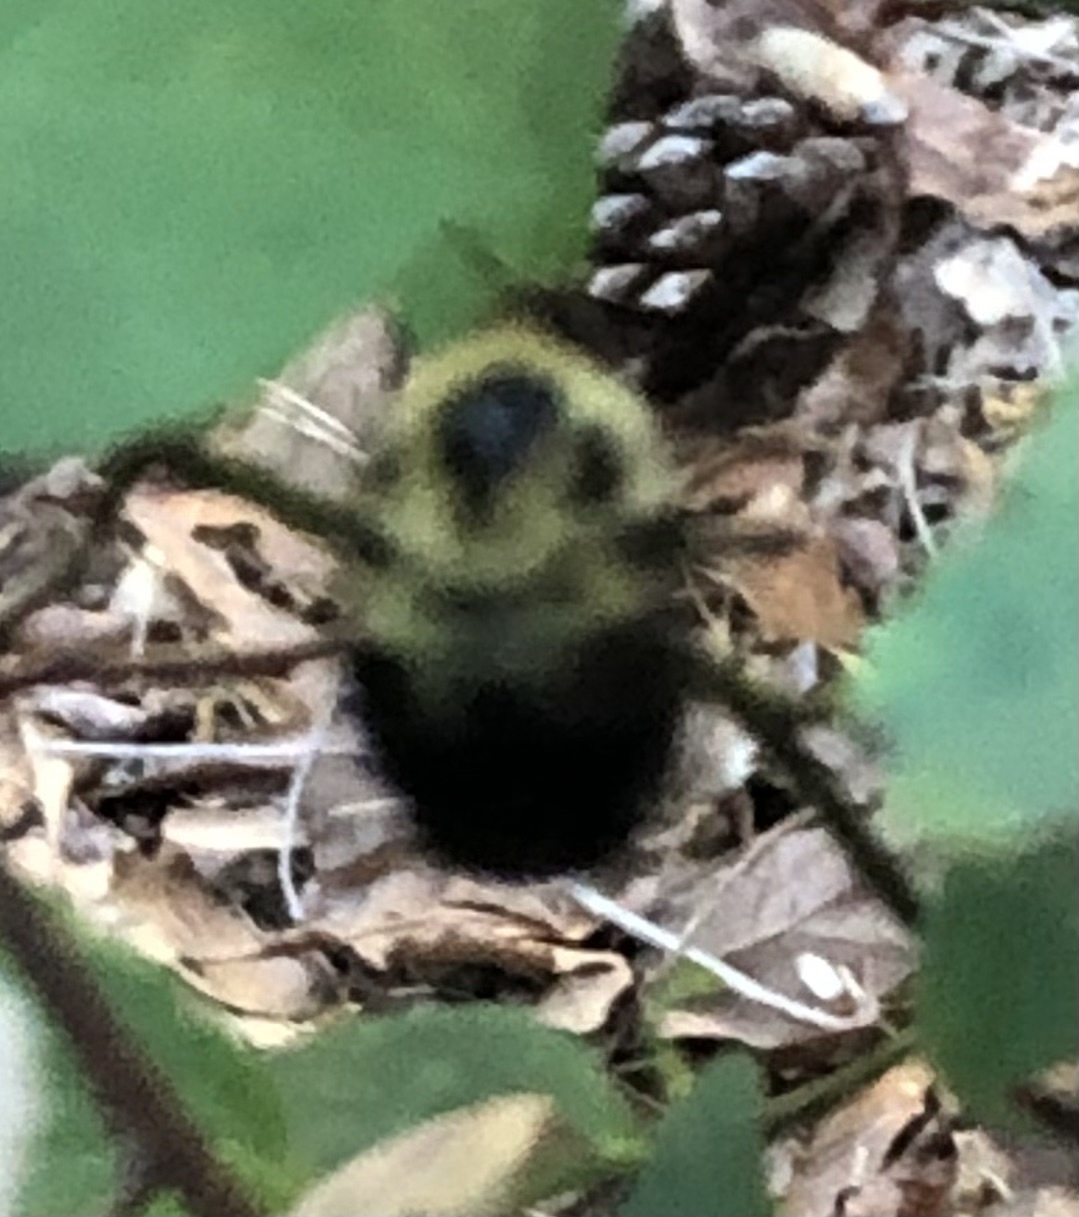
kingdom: Animalia
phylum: Arthropoda
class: Insecta
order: Hymenoptera
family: Apidae
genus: Bombus
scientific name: Bombus bimaculatus
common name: Two-spotted bumble bee
